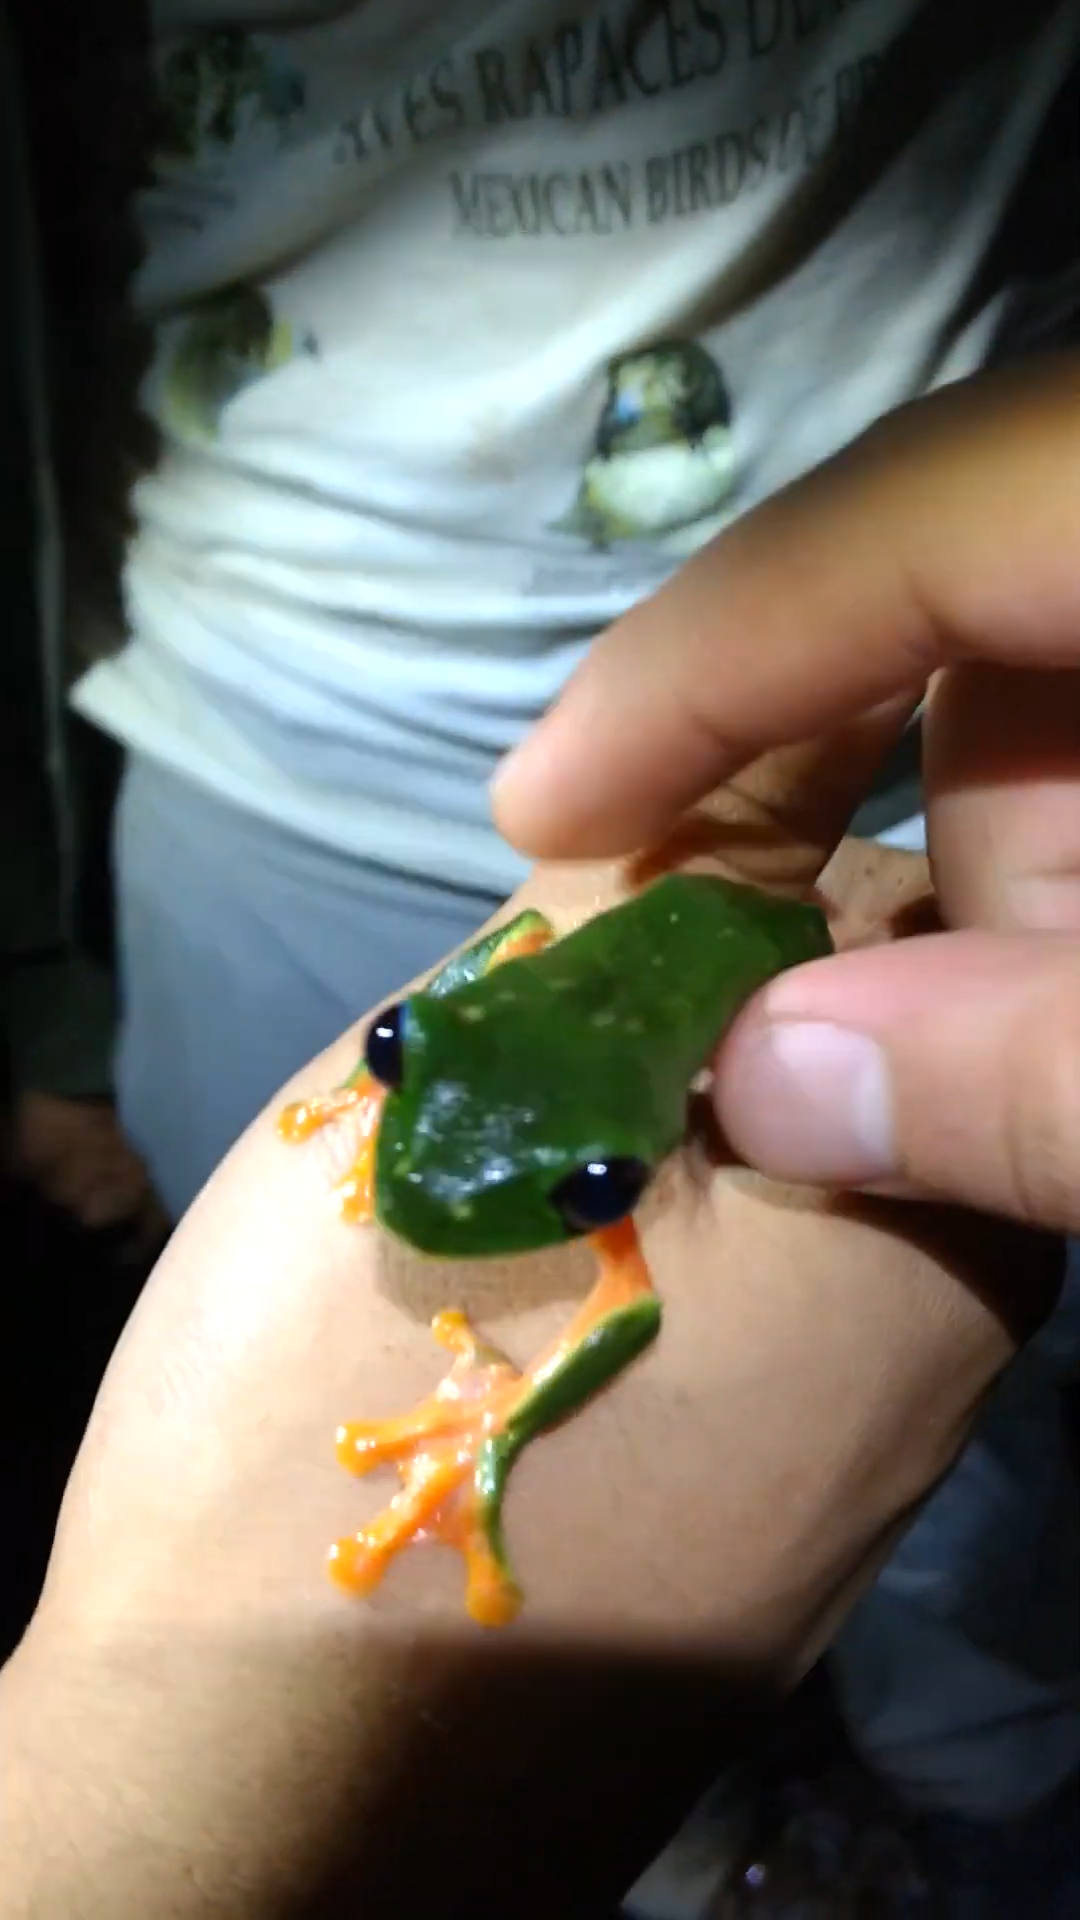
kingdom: Animalia
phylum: Chordata
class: Amphibia
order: Anura
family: Phyllomedusidae
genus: Agalychnis
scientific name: Agalychnis moreletii
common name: Black-eyed leaf frog
